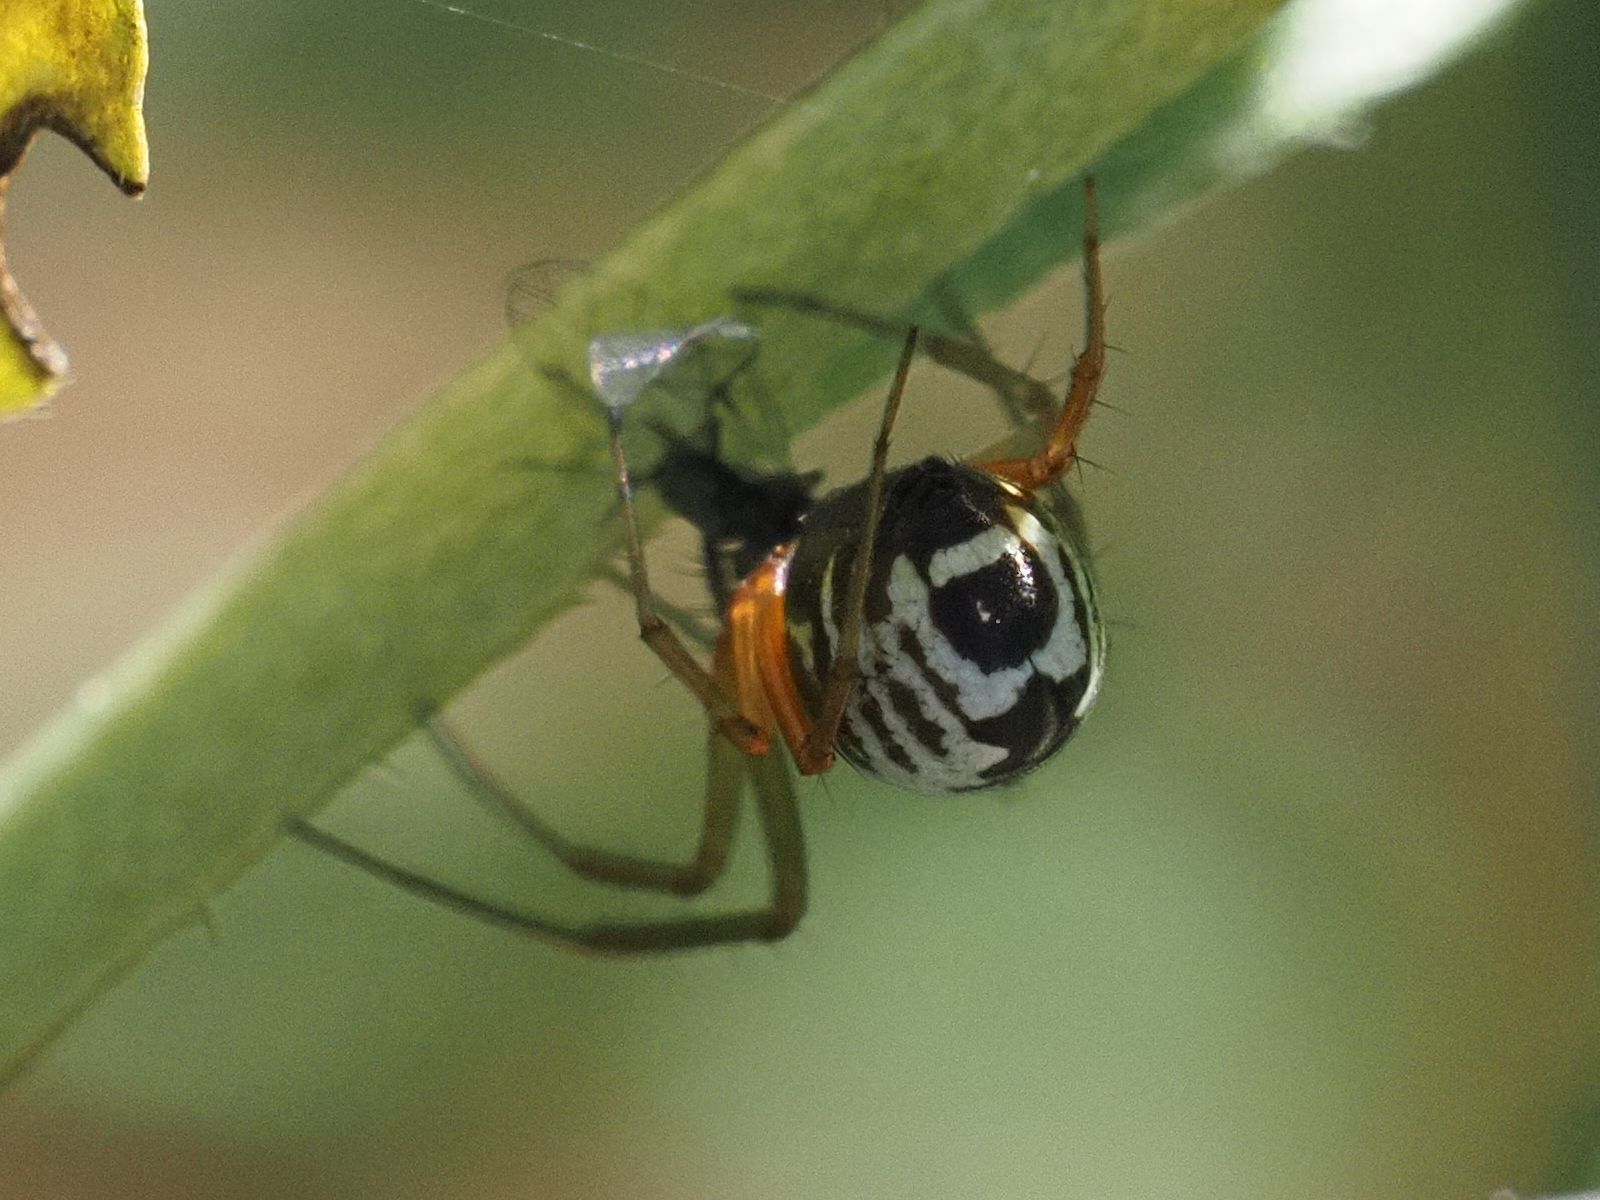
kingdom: Animalia
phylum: Arthropoda
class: Arachnida
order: Araneae
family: Linyphiidae
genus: Frontinellina
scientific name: Frontinellina frutetorum
